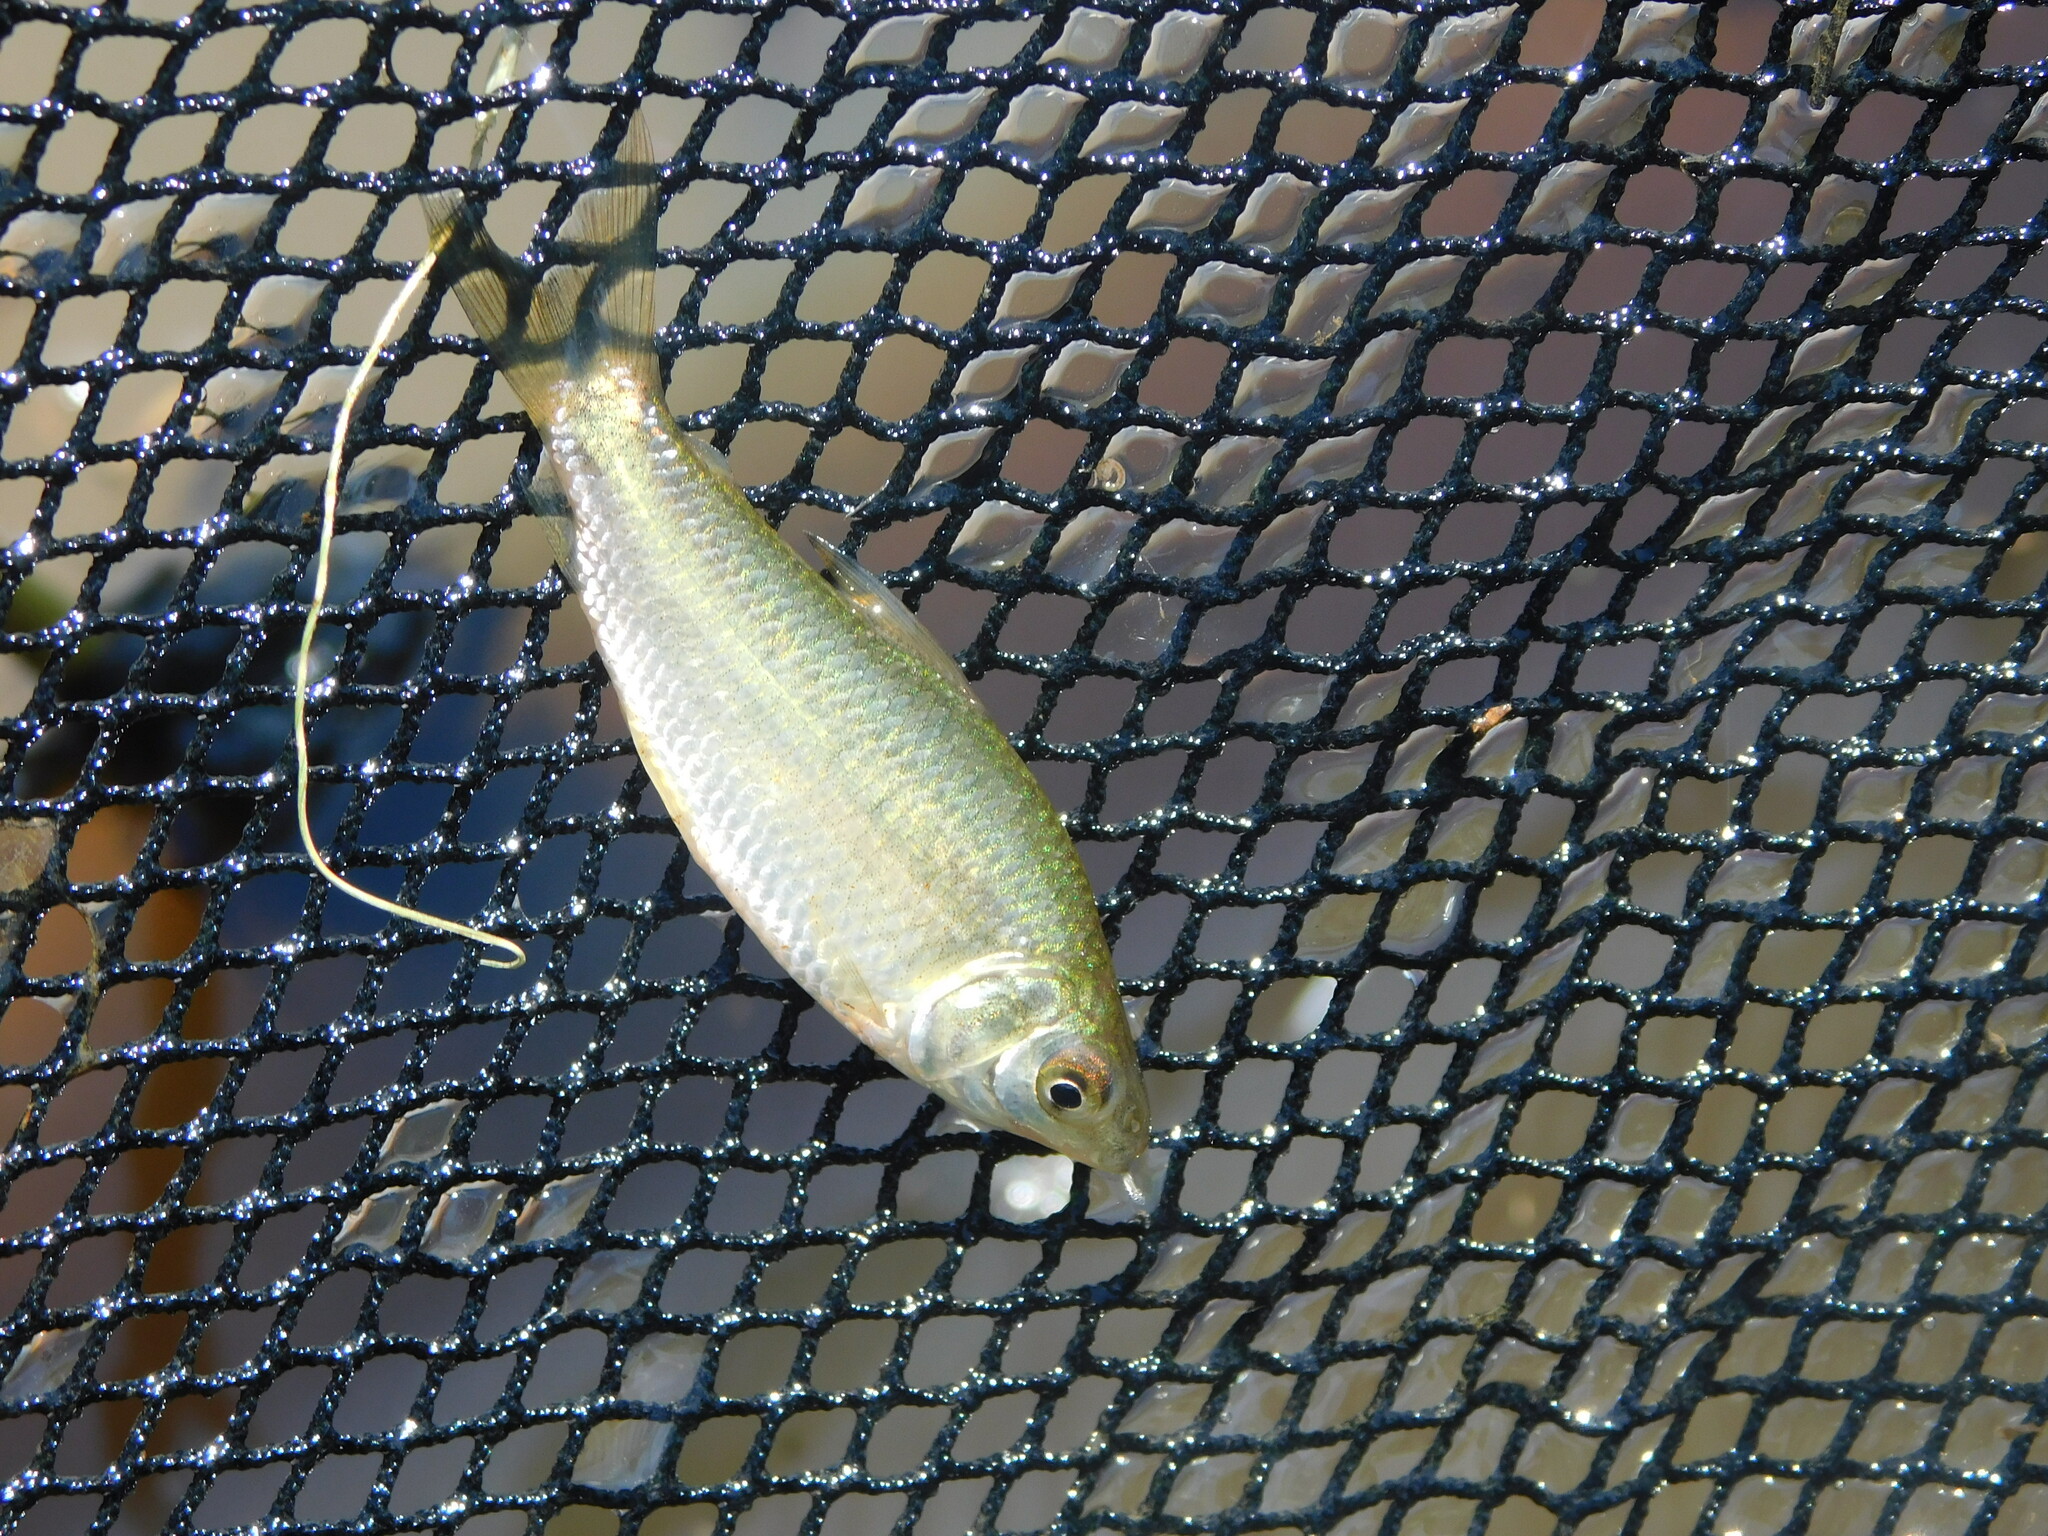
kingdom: Animalia
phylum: Chordata
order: Characiformes
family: Curimatidae
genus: Cyphocharax
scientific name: Cyphocharax spilotus
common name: Characin
